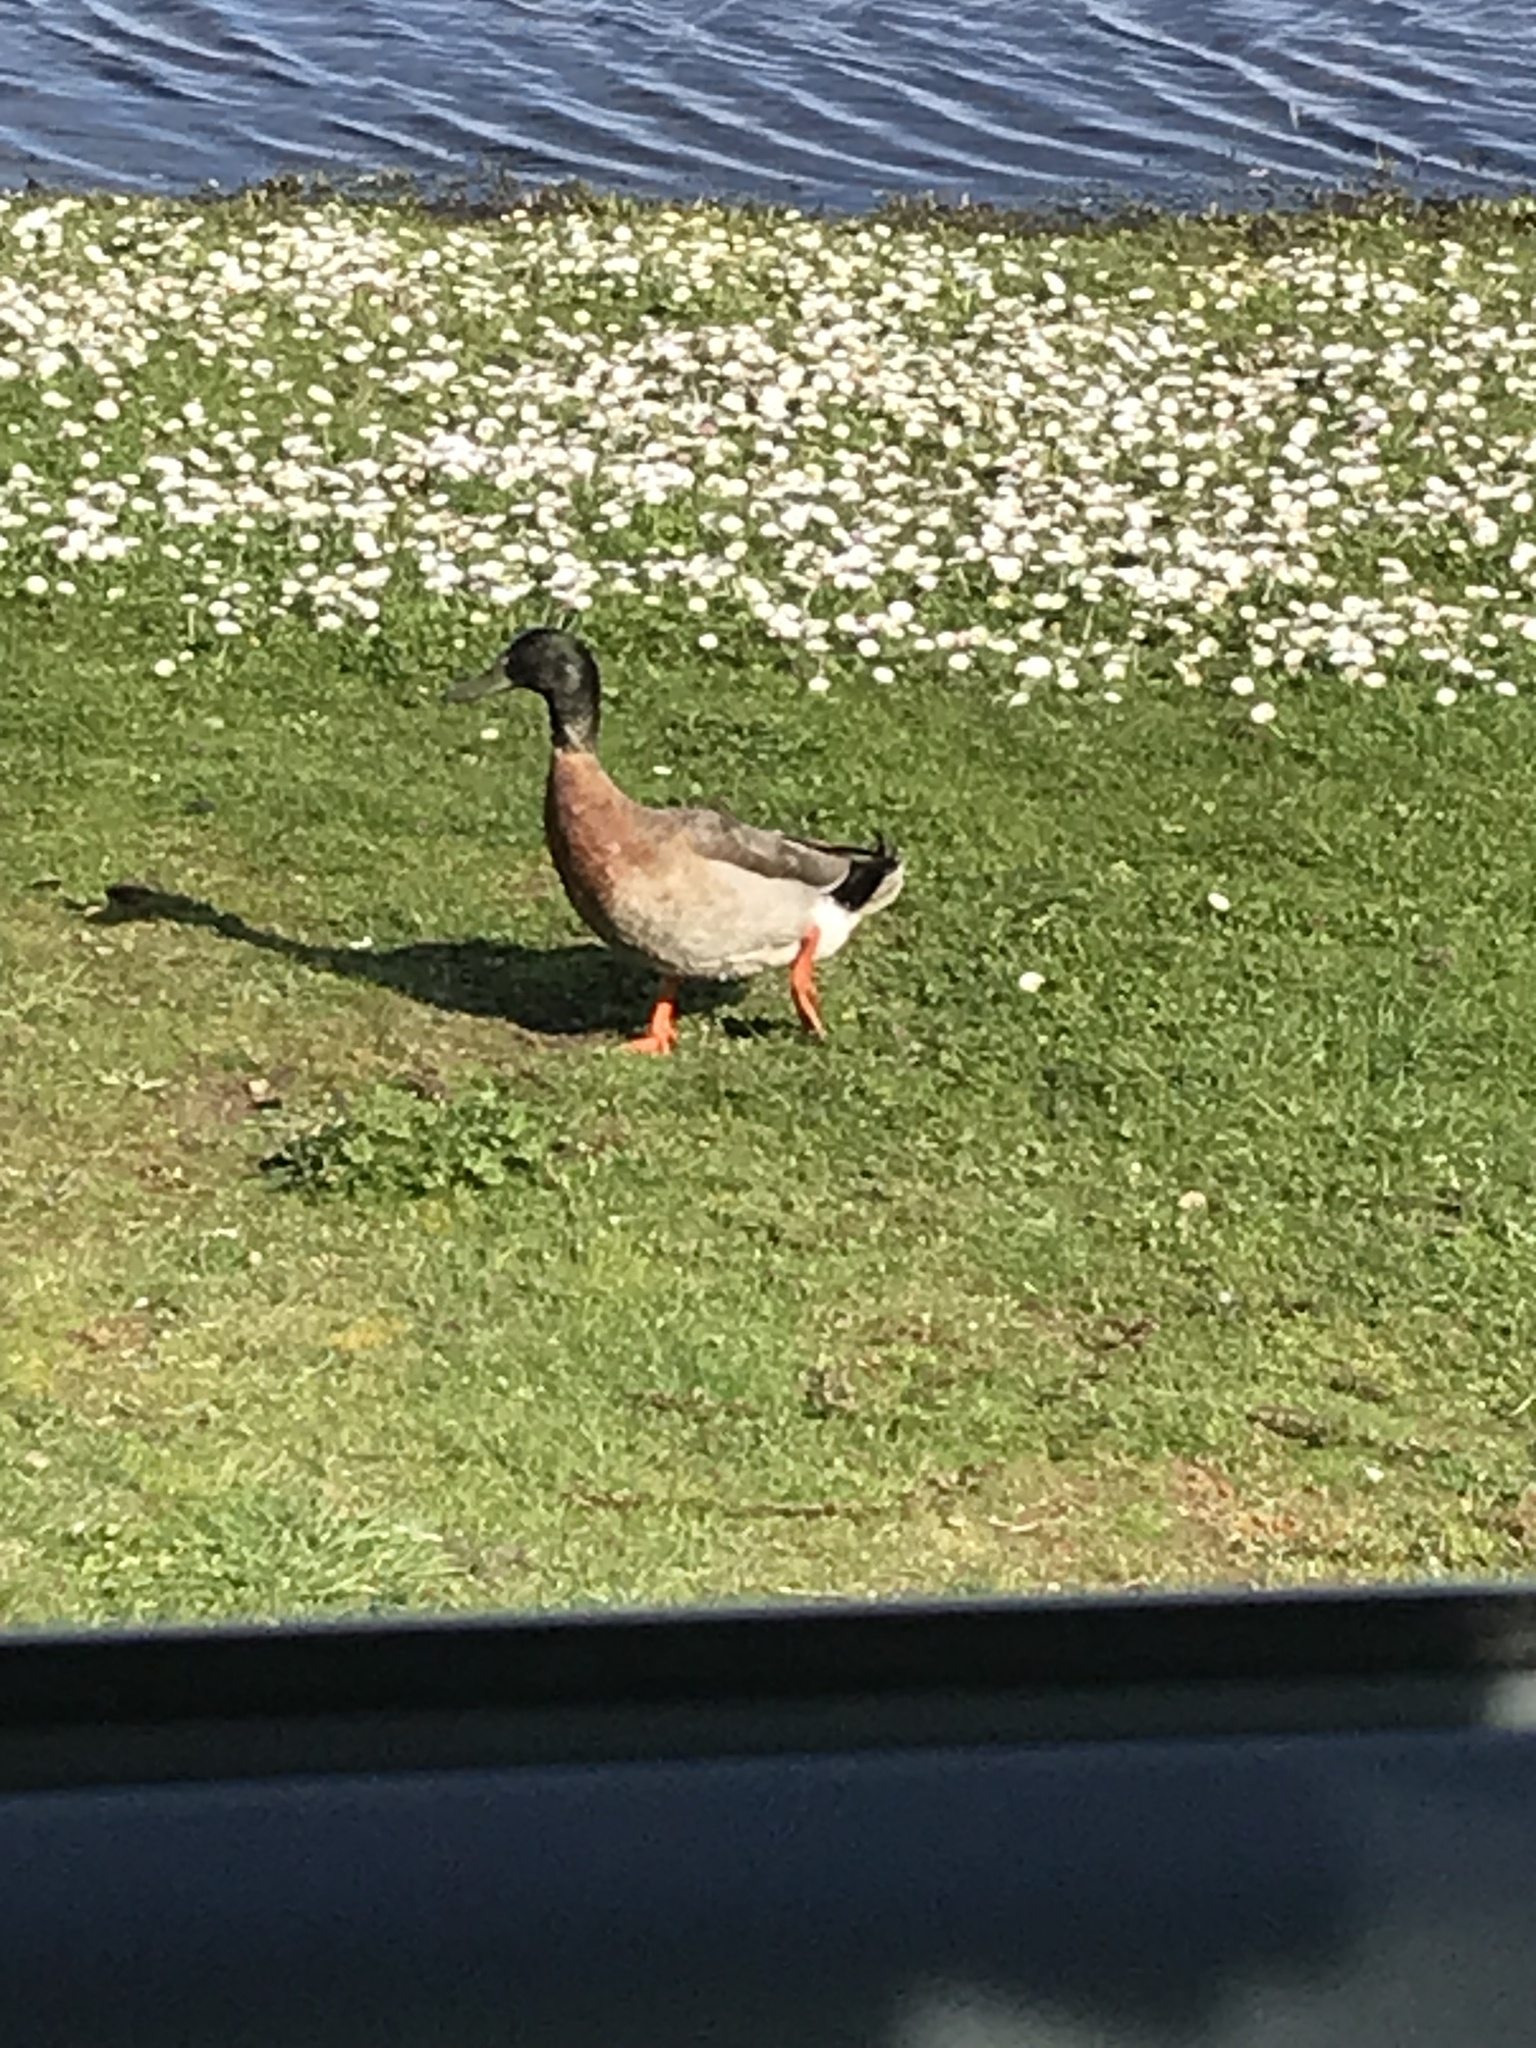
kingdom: Animalia
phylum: Chordata
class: Aves
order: Anseriformes
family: Anatidae
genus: Anas
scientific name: Anas platyrhynchos
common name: Mallard
